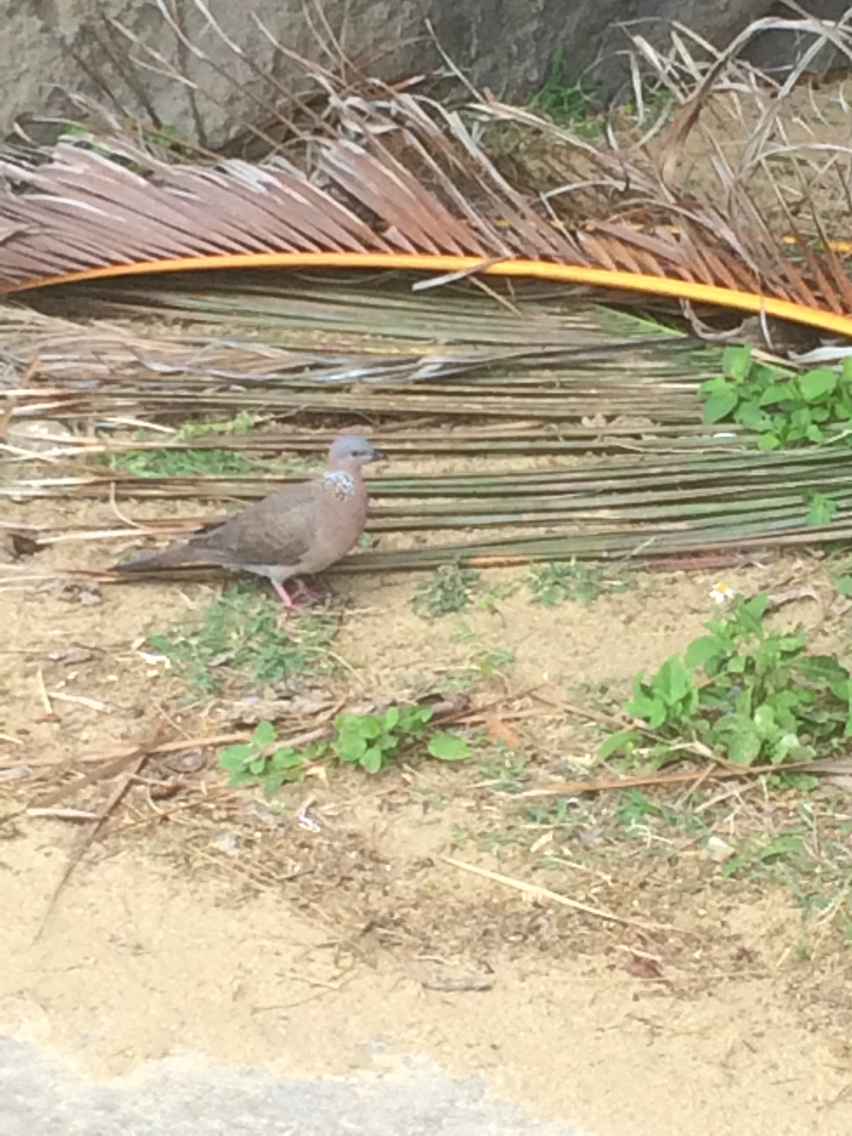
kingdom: Animalia
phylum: Chordata
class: Aves
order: Columbiformes
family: Columbidae
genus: Spilopelia
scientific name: Spilopelia chinensis
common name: Spotted dove
